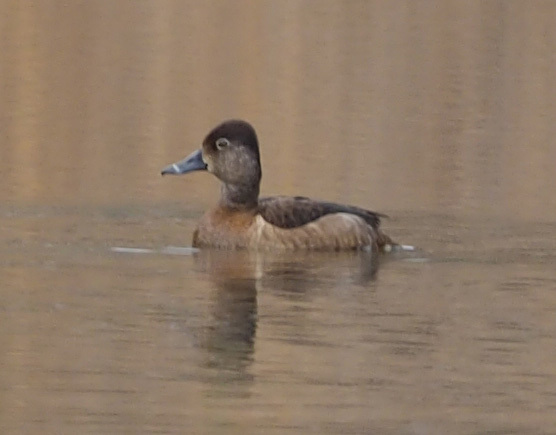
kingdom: Animalia
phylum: Chordata
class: Aves
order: Anseriformes
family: Anatidae
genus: Aythya
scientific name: Aythya collaris
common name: Ring-necked duck
